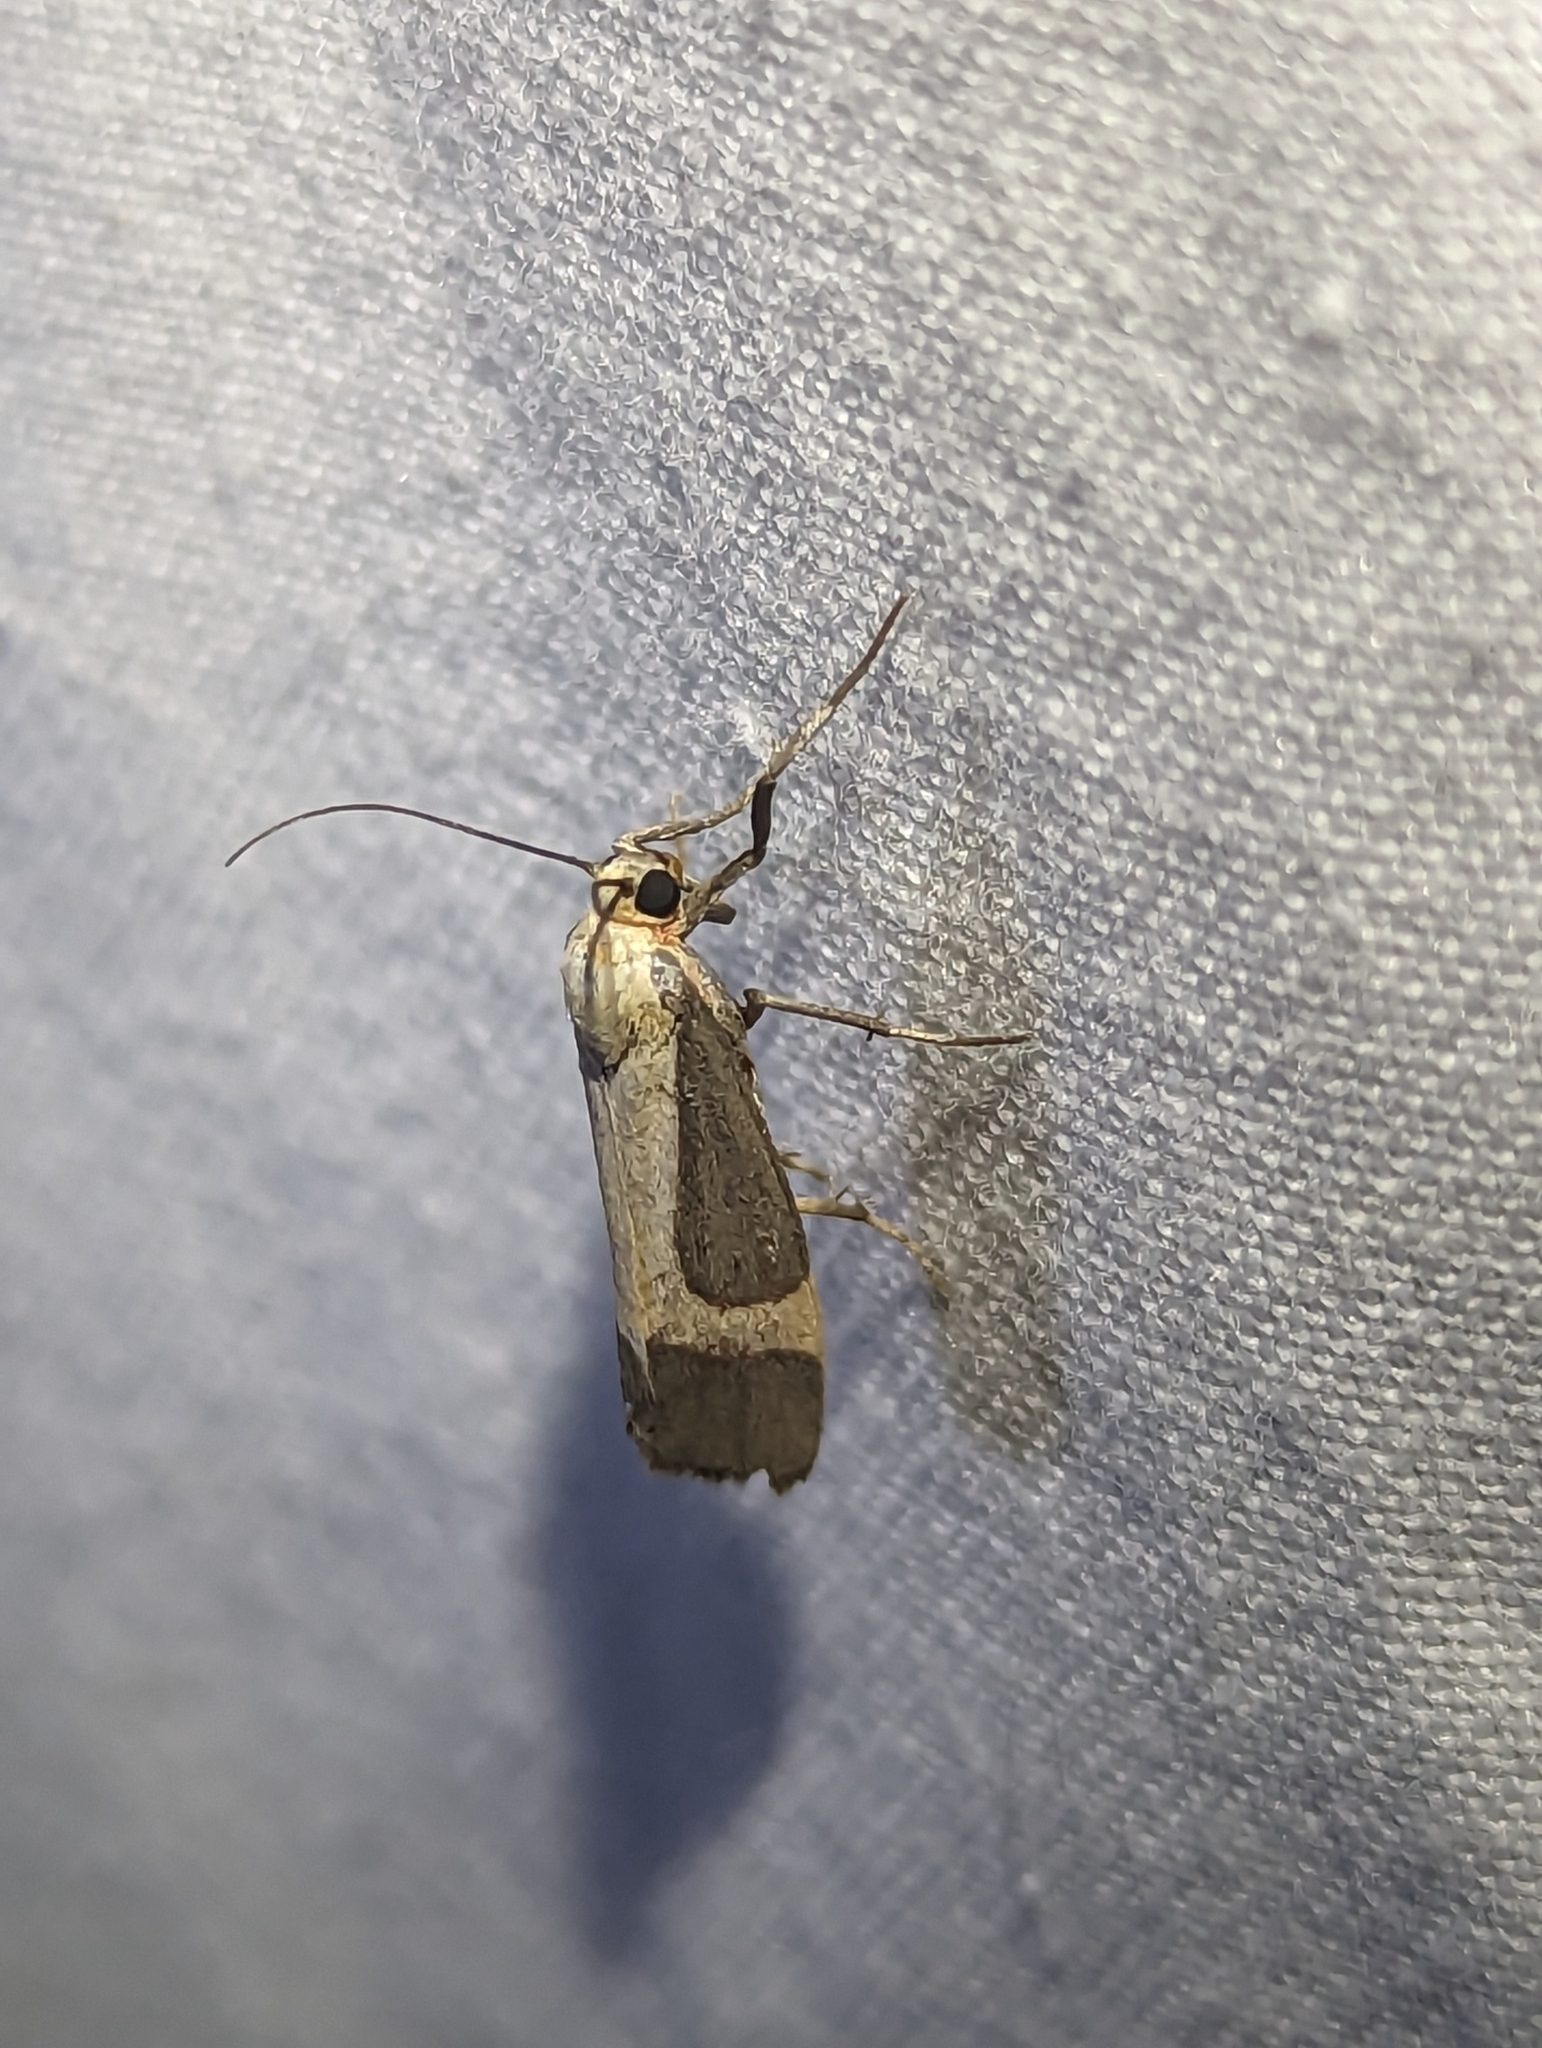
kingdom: Animalia
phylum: Arthropoda
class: Insecta
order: Lepidoptera
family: Erebidae
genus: Cisthene
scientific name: Cisthene angelus
